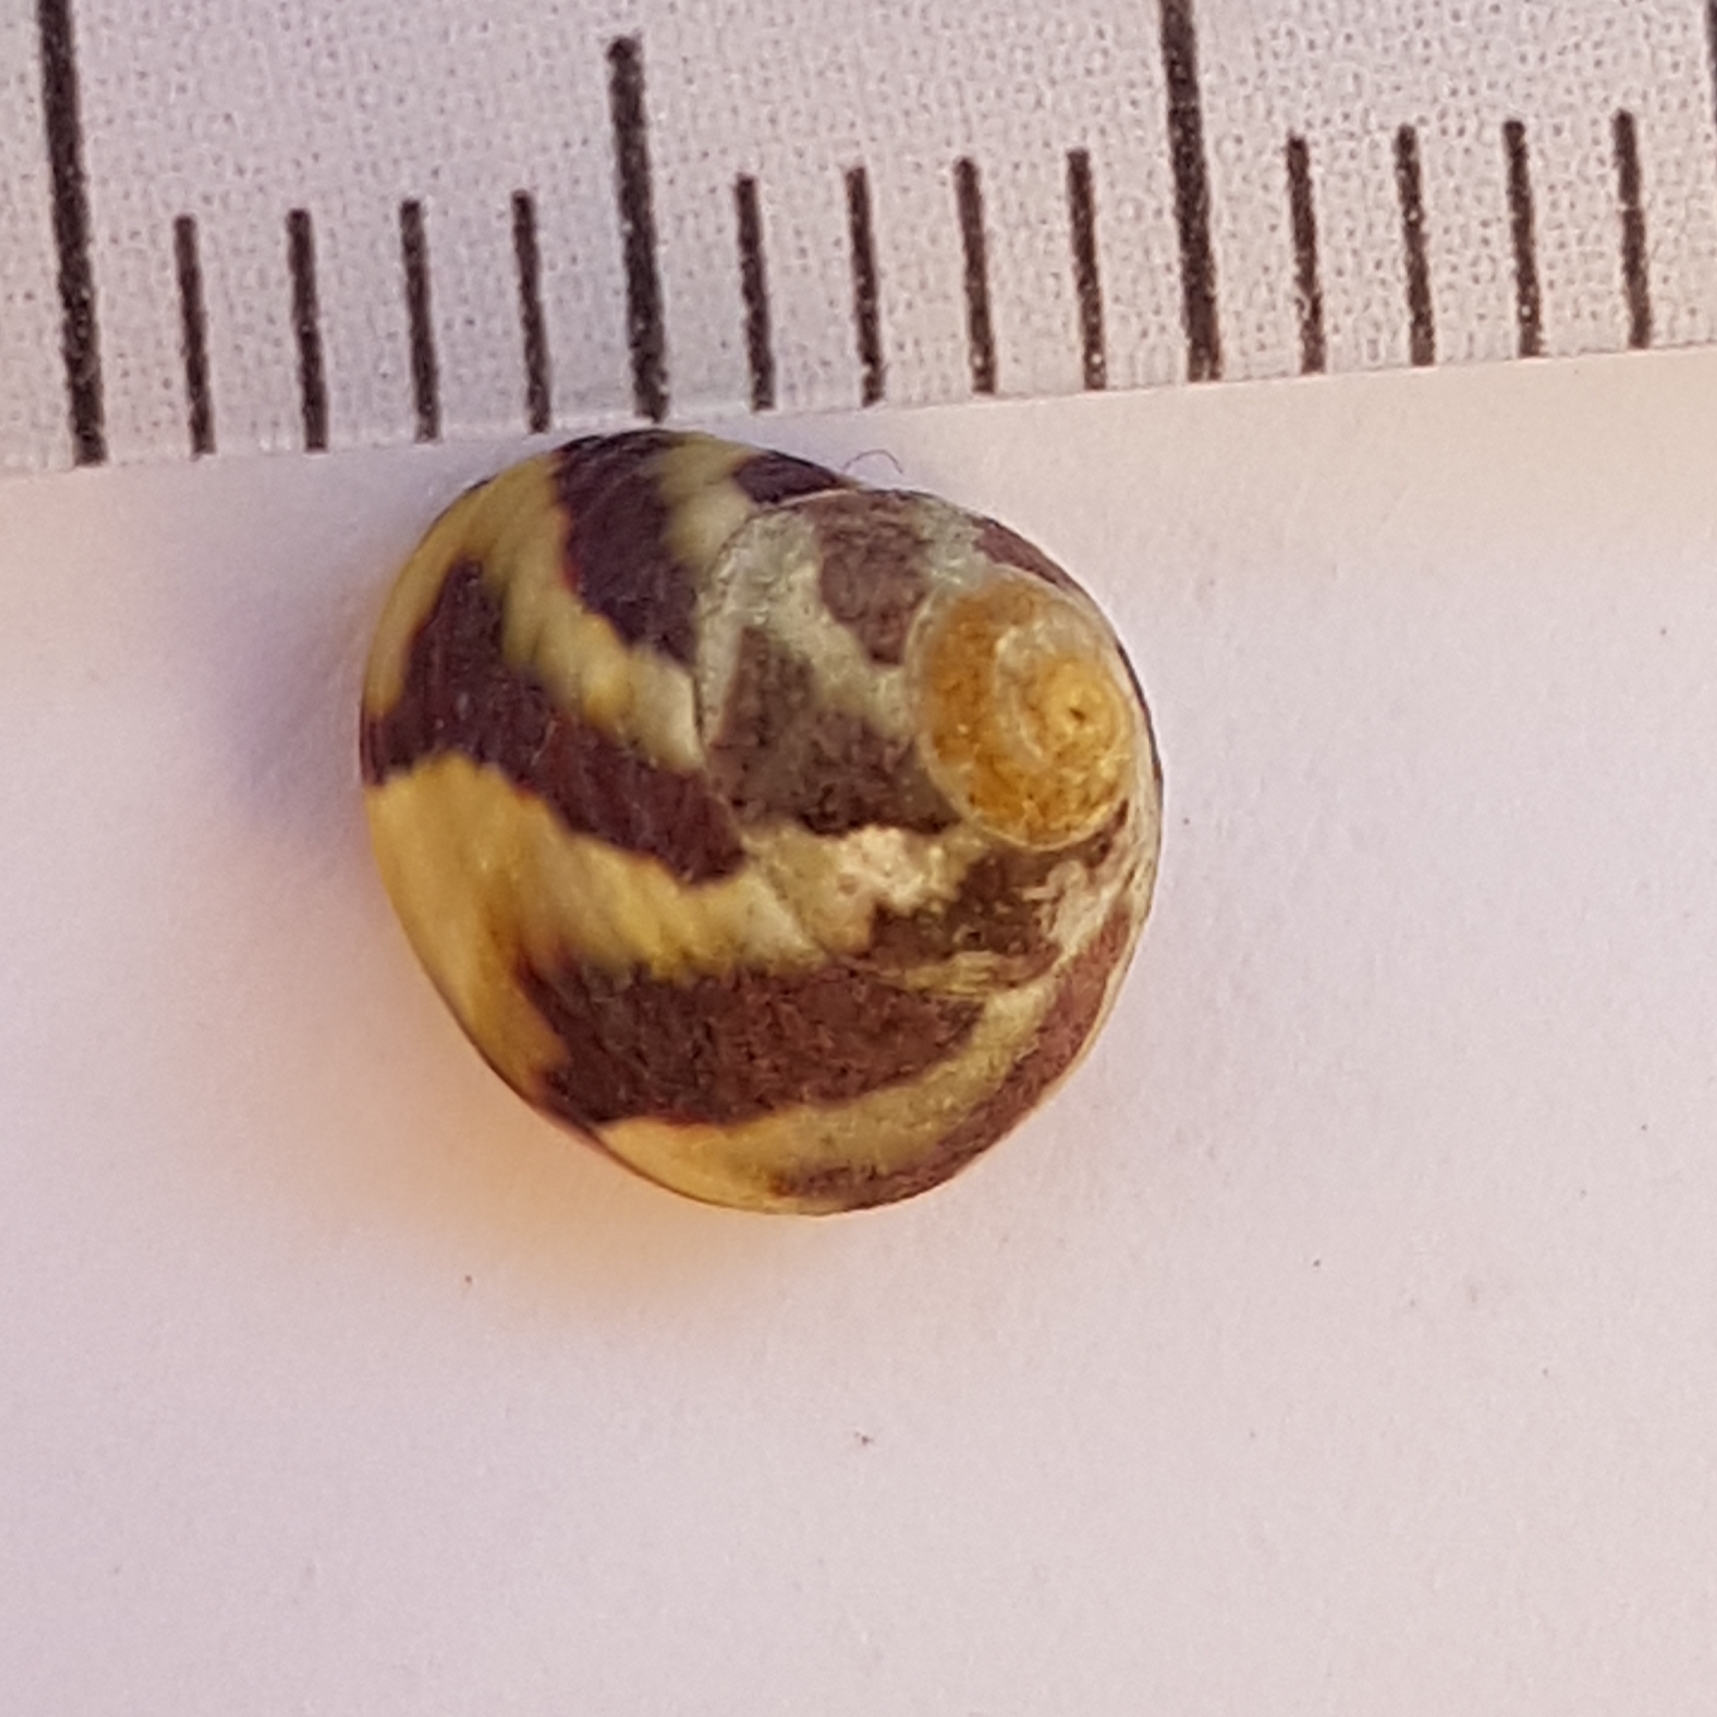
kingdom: Animalia
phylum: Mollusca
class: Gastropoda
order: Trochida
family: Trochidae
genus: Steromphala
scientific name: Steromphala pennanti
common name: Pennant's top shell
